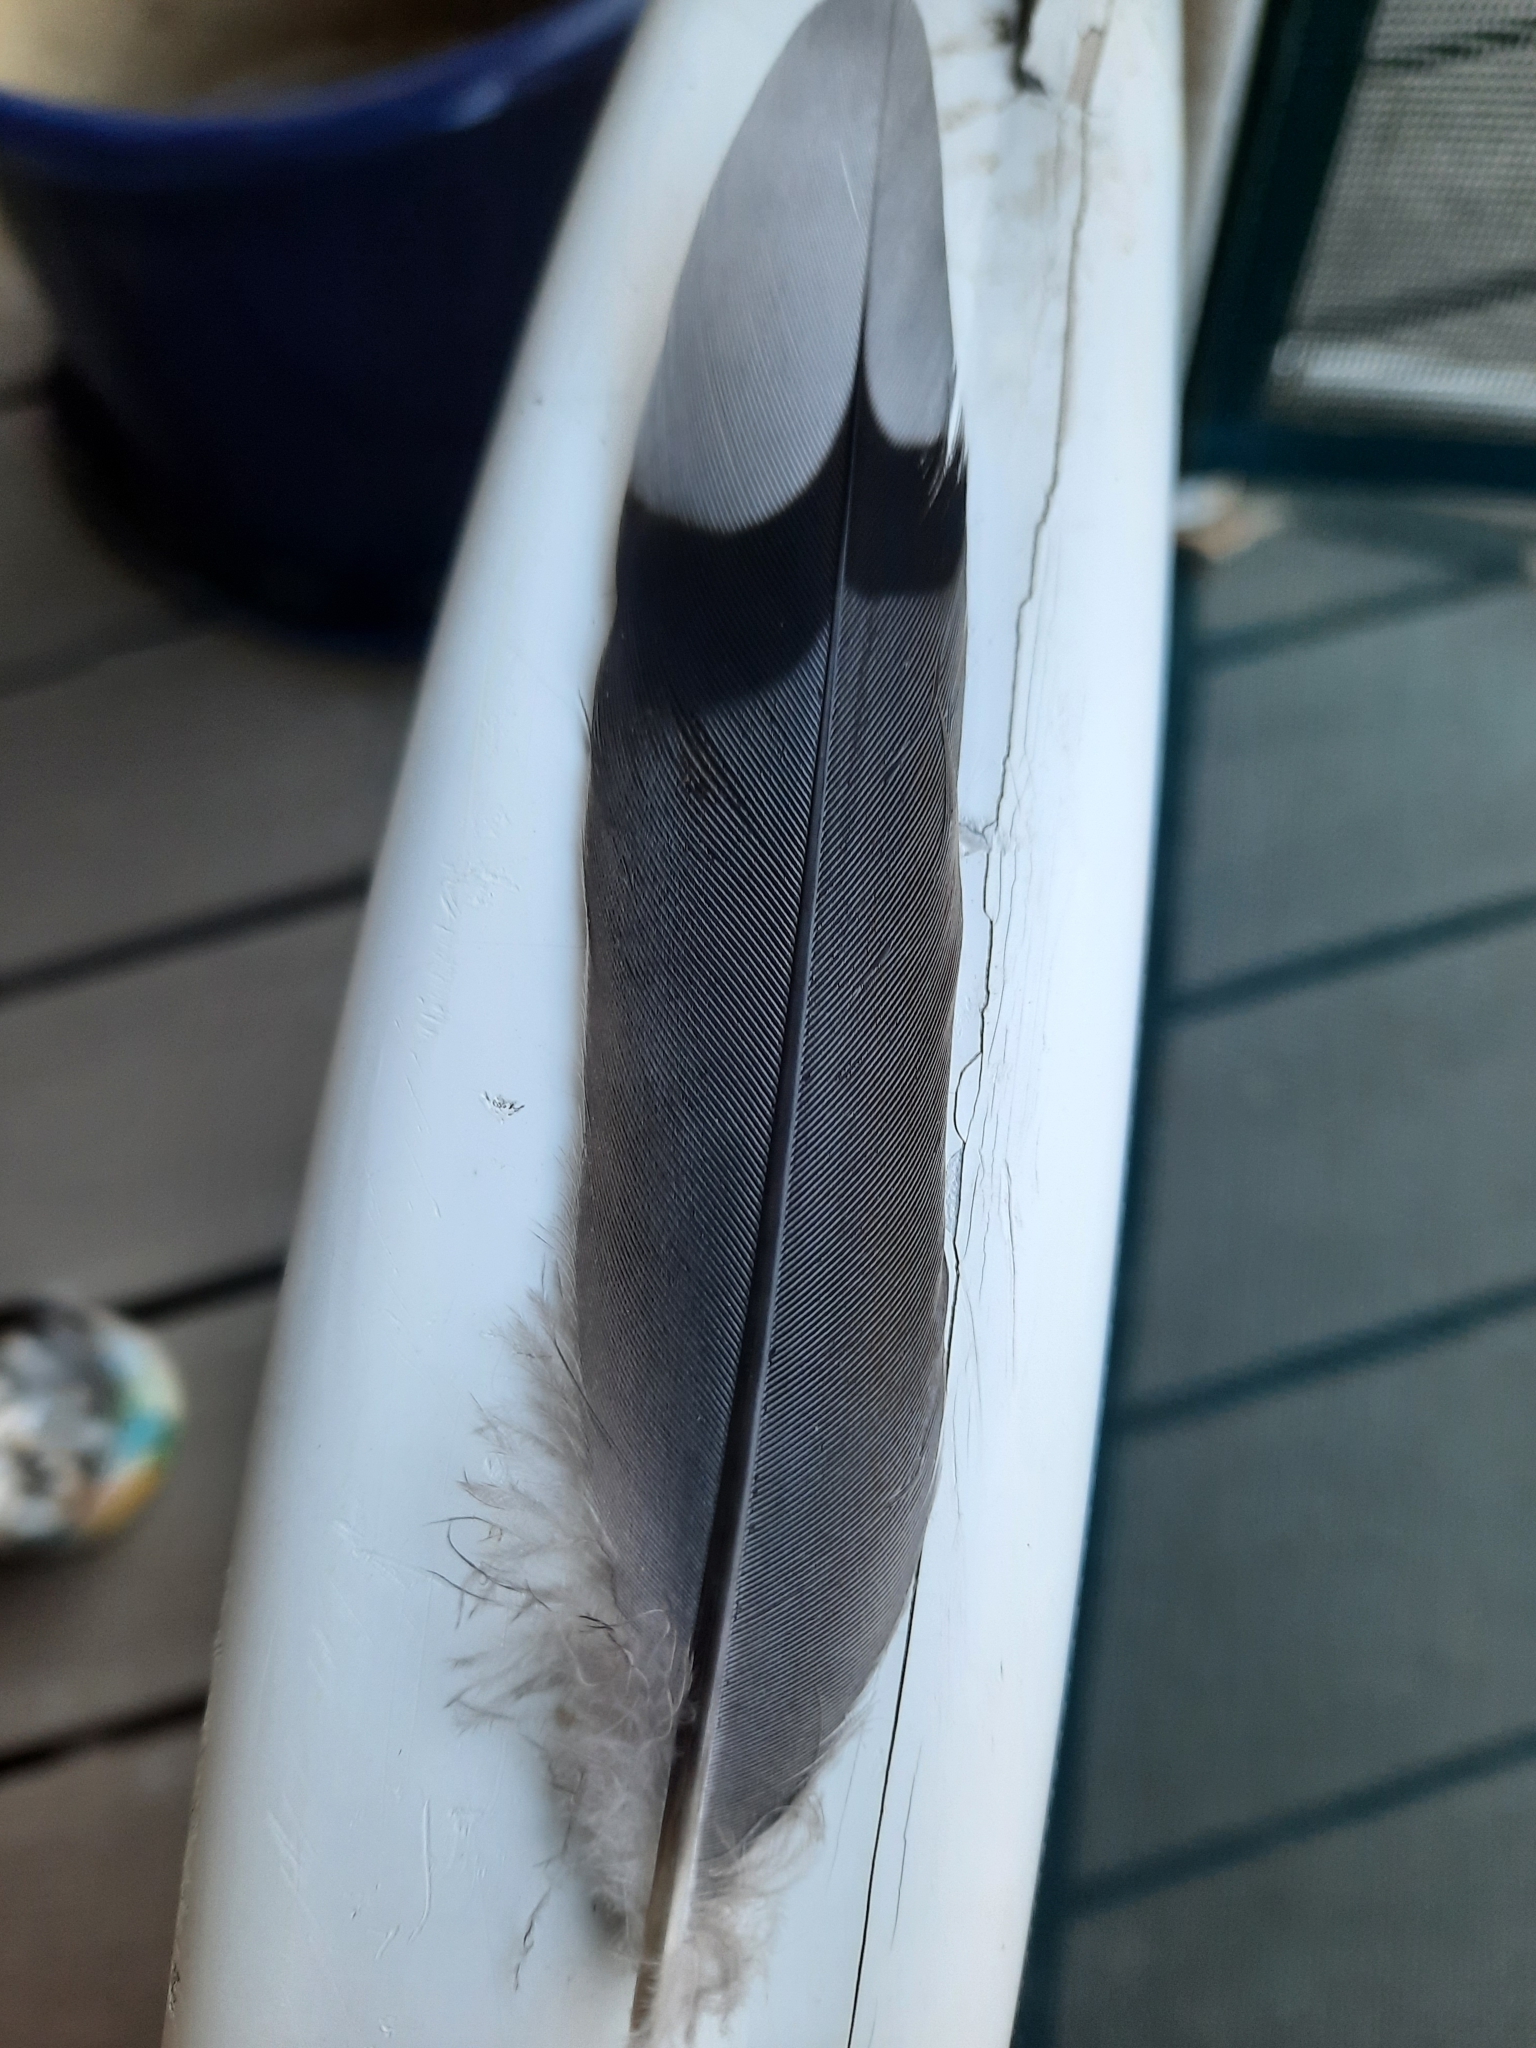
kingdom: Animalia
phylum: Chordata
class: Aves
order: Columbiformes
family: Columbidae
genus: Zenaida
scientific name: Zenaida macroura
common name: Mourning dove
